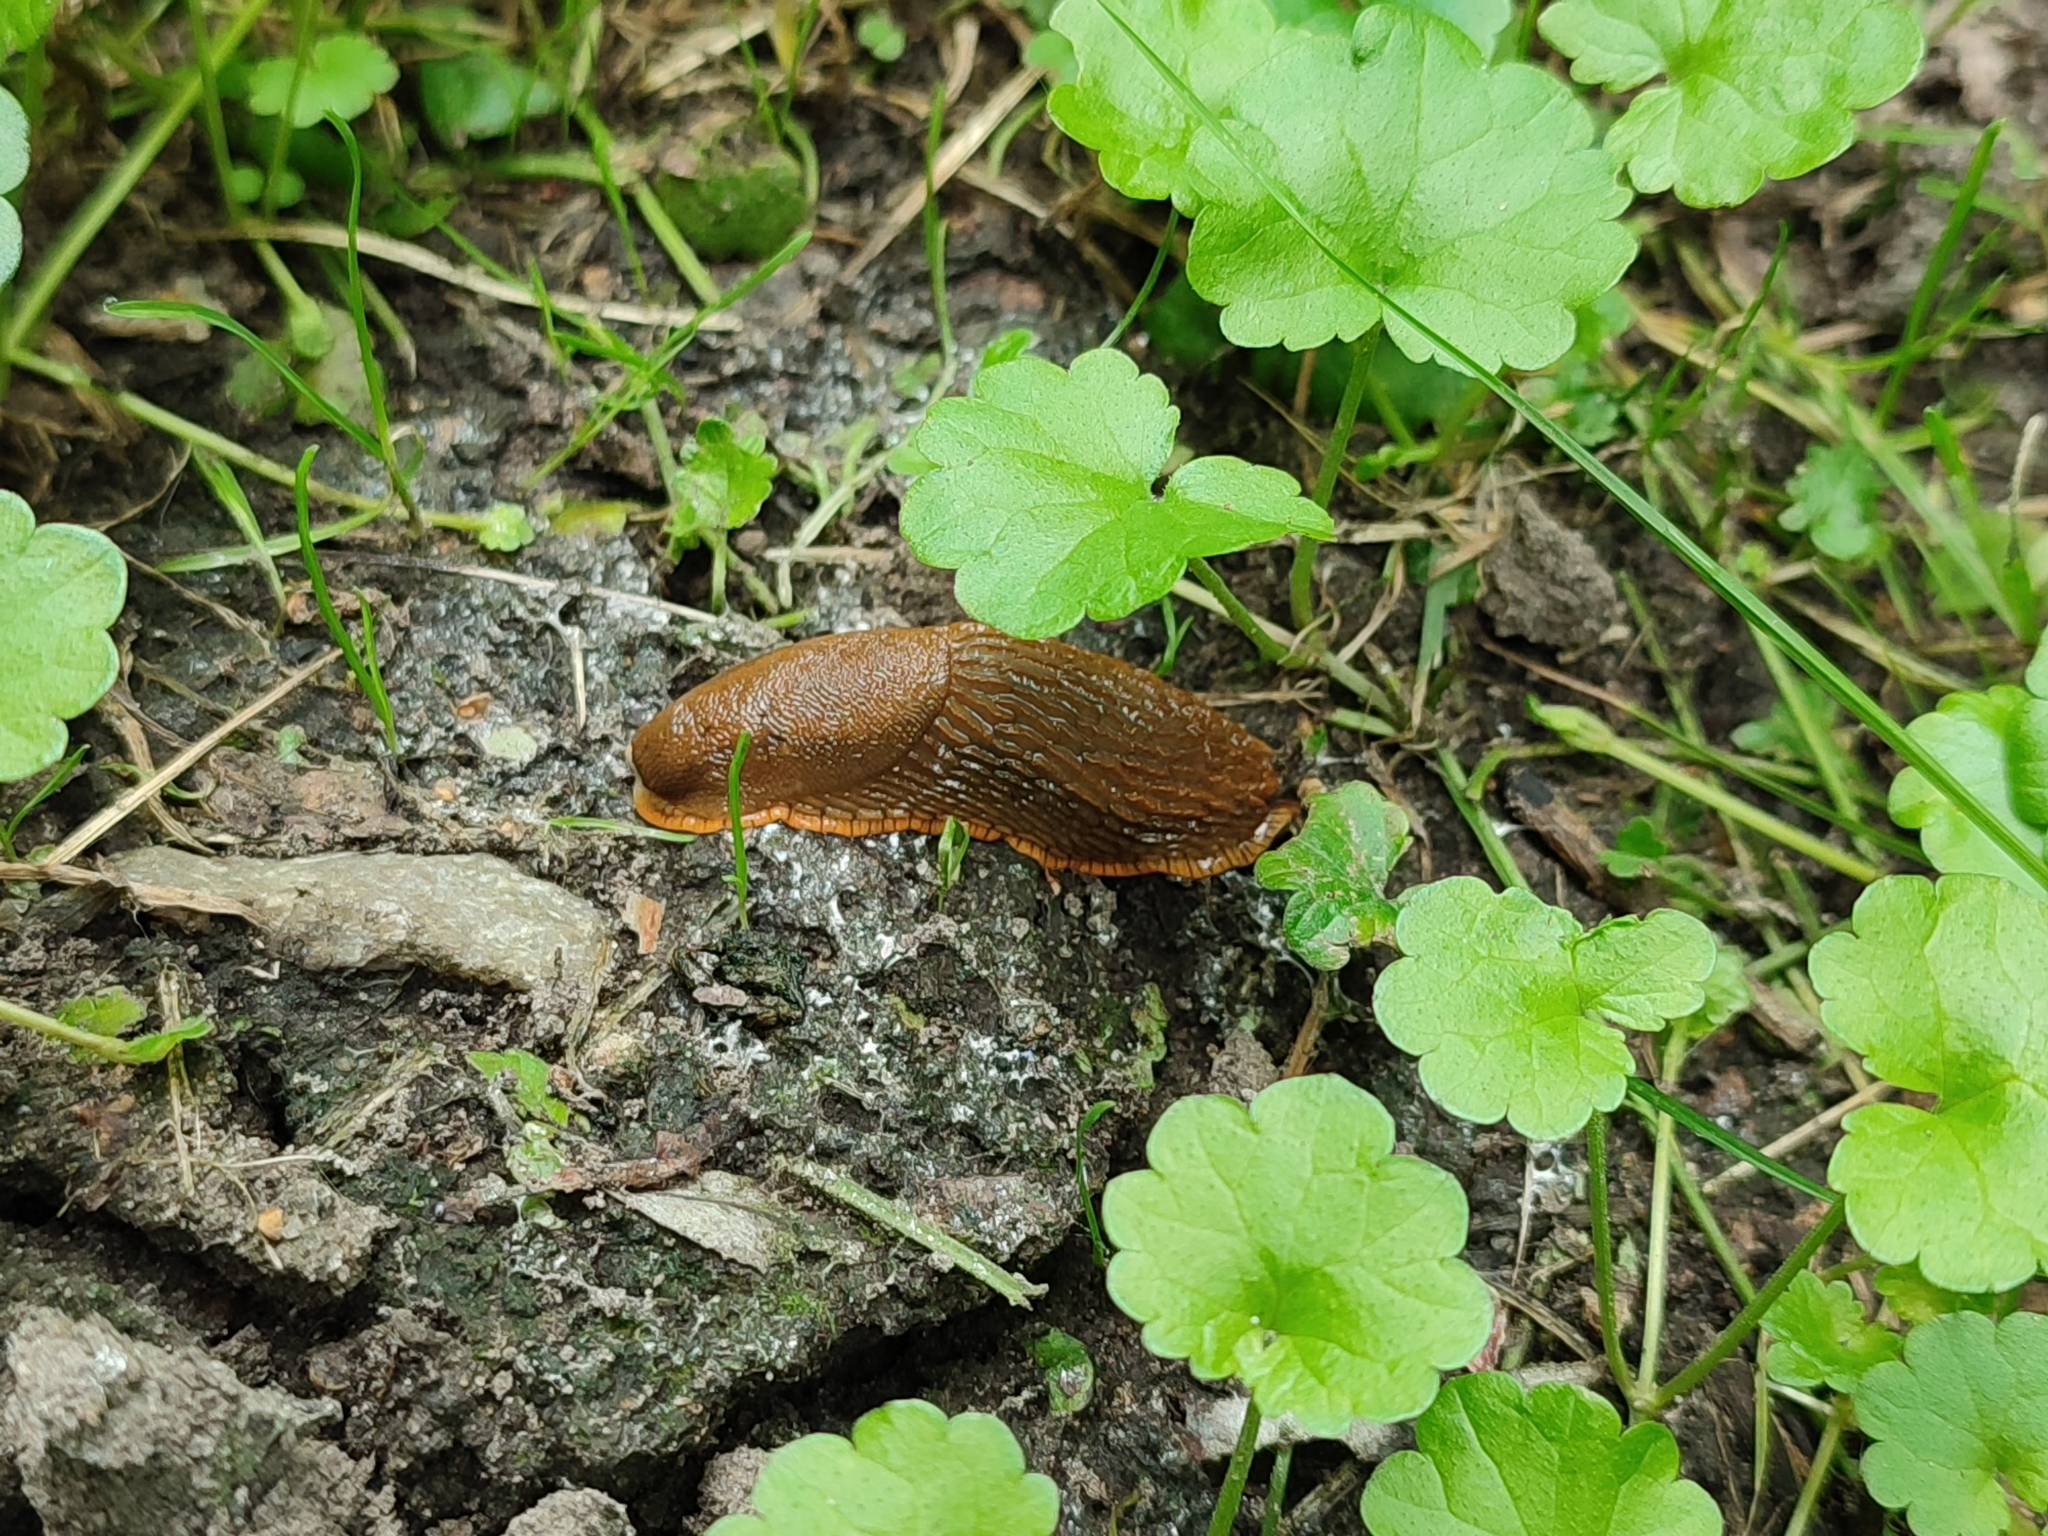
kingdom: Animalia
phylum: Mollusca
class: Gastropoda
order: Stylommatophora
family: Arionidae
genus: Arion
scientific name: Arion vulgaris
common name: Lusitanian slug
